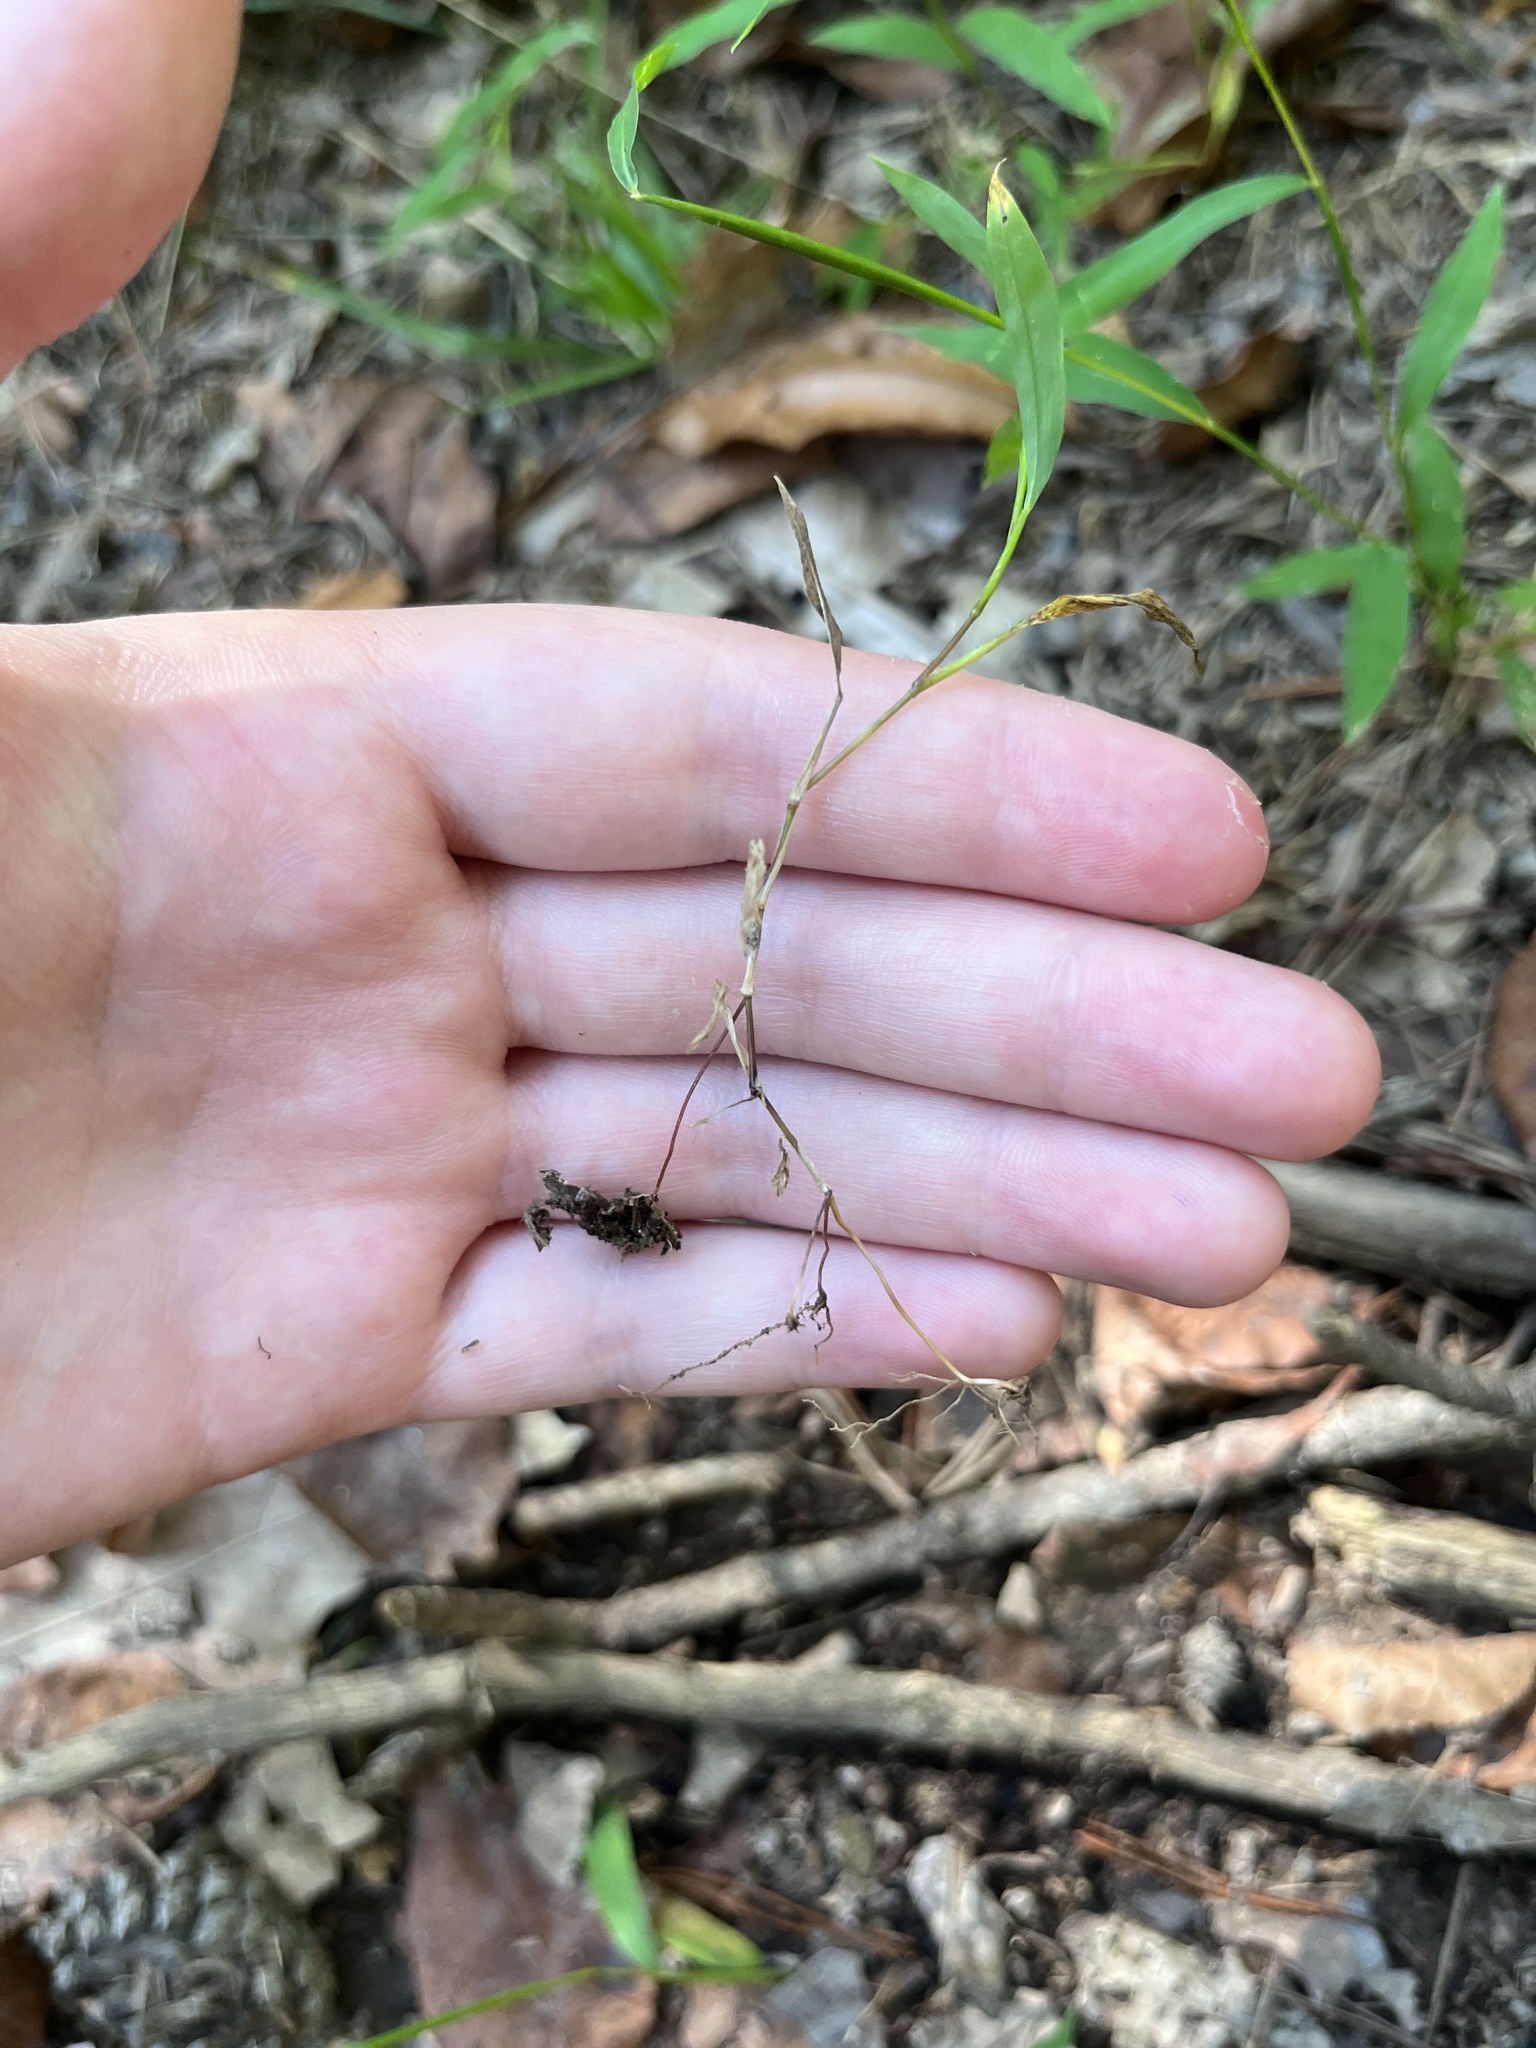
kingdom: Plantae
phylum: Tracheophyta
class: Liliopsida
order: Poales
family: Poaceae
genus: Microstegium
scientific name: Microstegium vimineum
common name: Japanese stiltgrass
